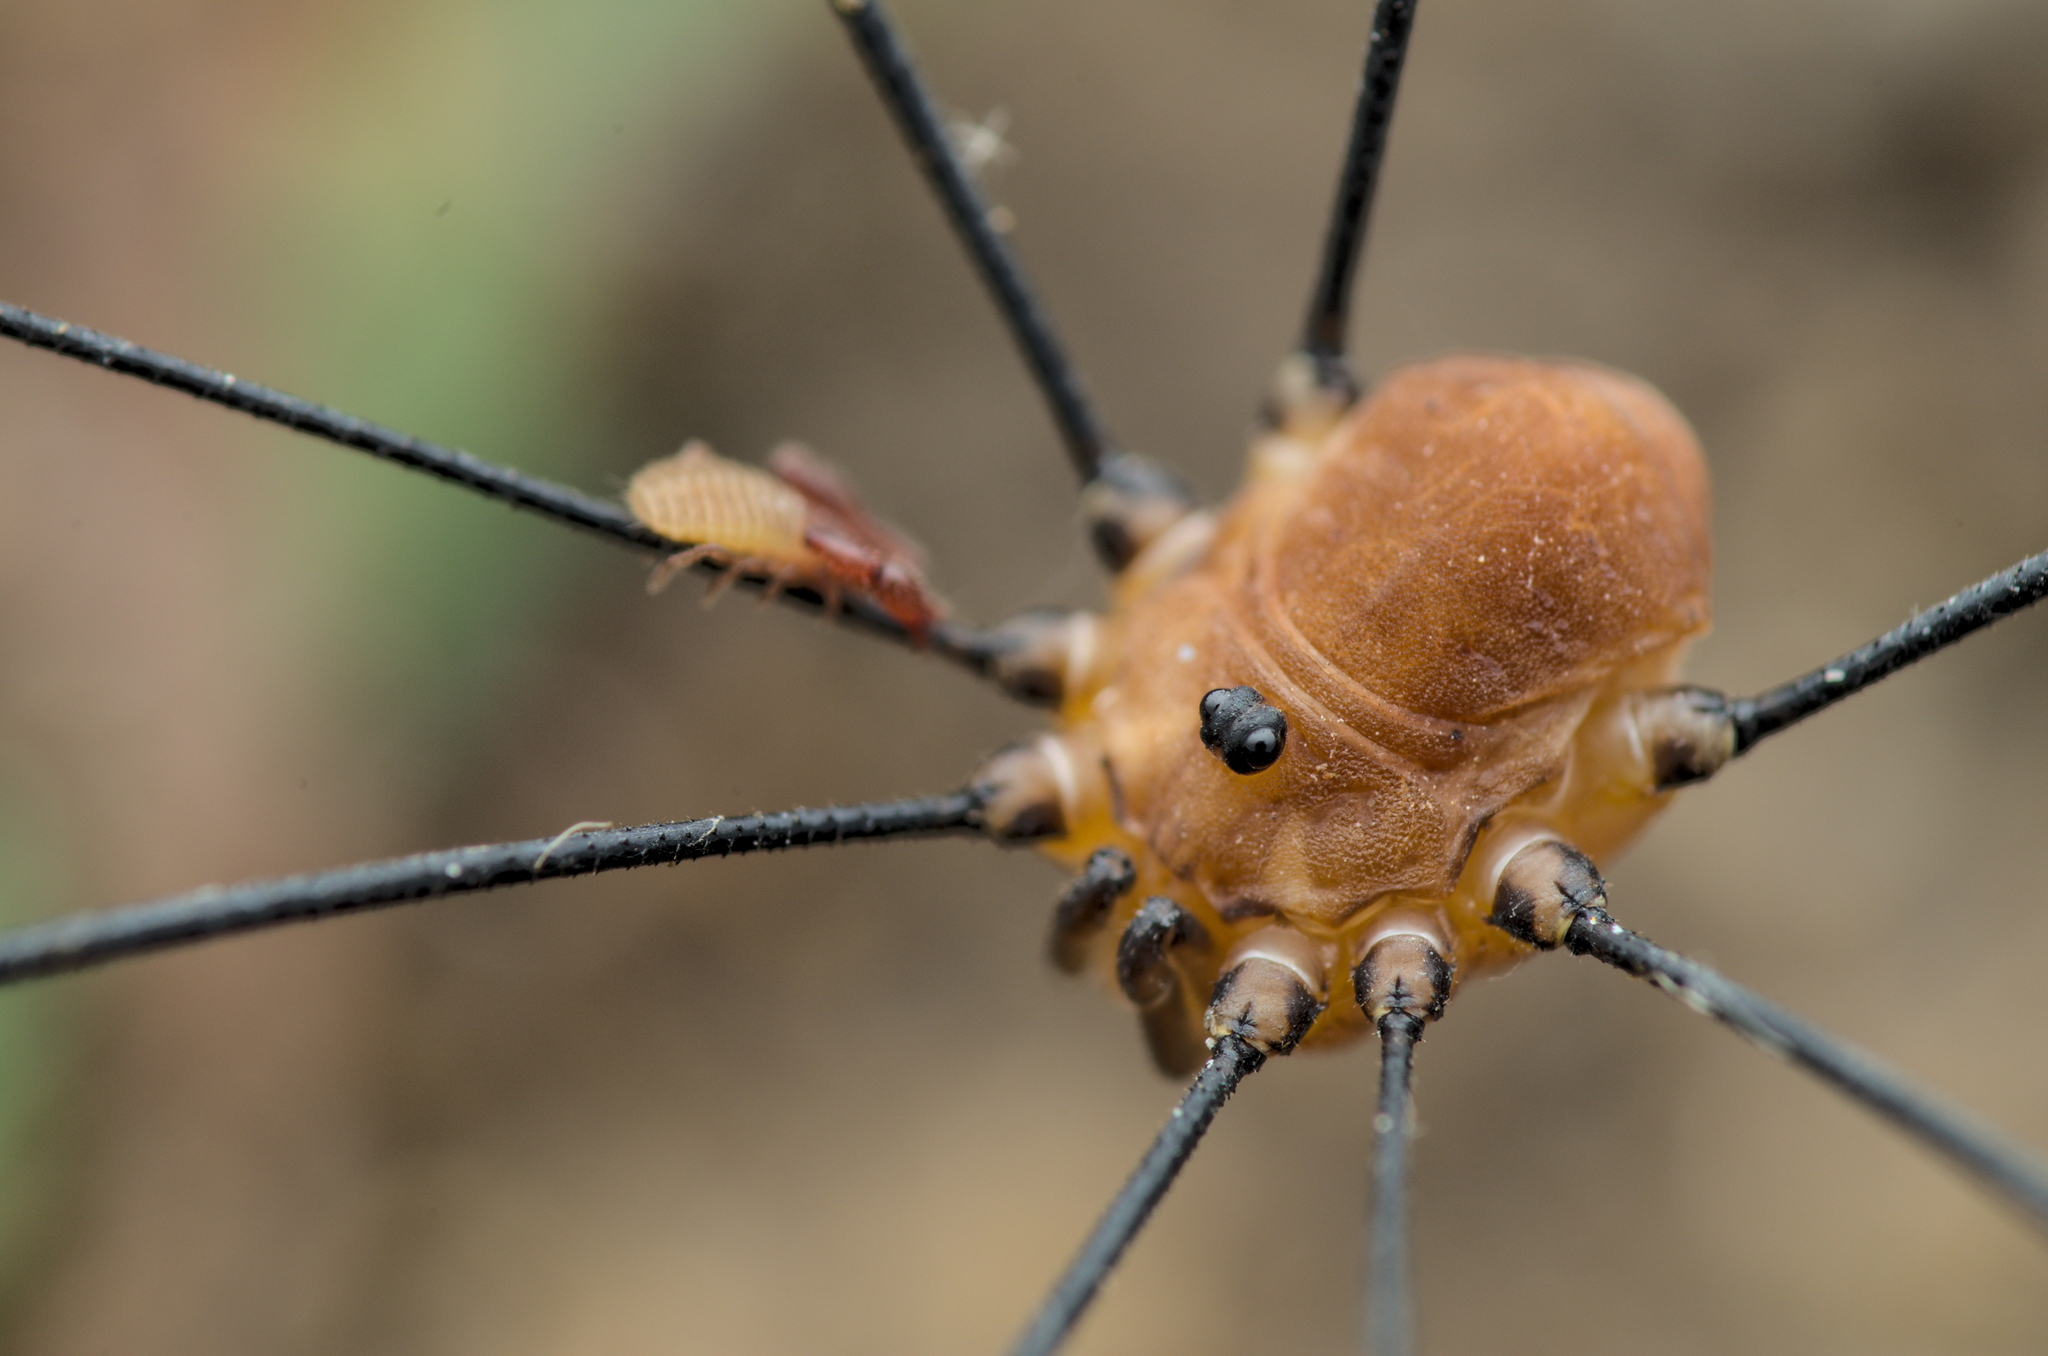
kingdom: Animalia
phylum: Arthropoda
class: Arachnida
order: Opiliones
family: Sclerosomatidae
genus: Leiobunum
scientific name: Leiobunum rotundum
